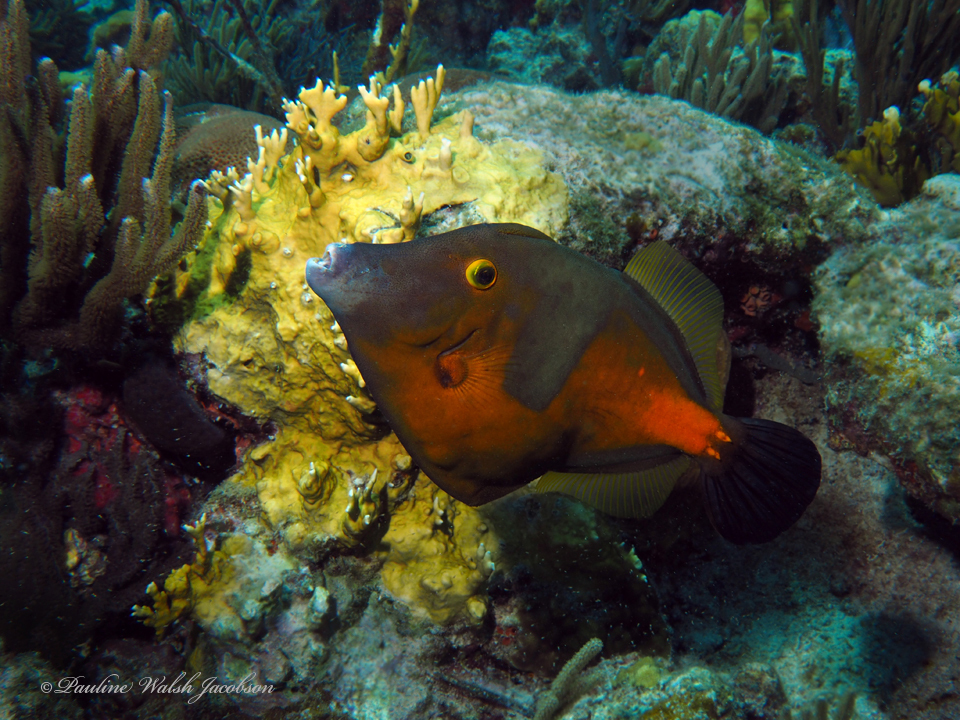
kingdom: Animalia
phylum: Chordata
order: Tetraodontiformes
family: Monacanthidae
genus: Cantherhines
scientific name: Cantherhines macrocerus
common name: Whitespotted filefish
